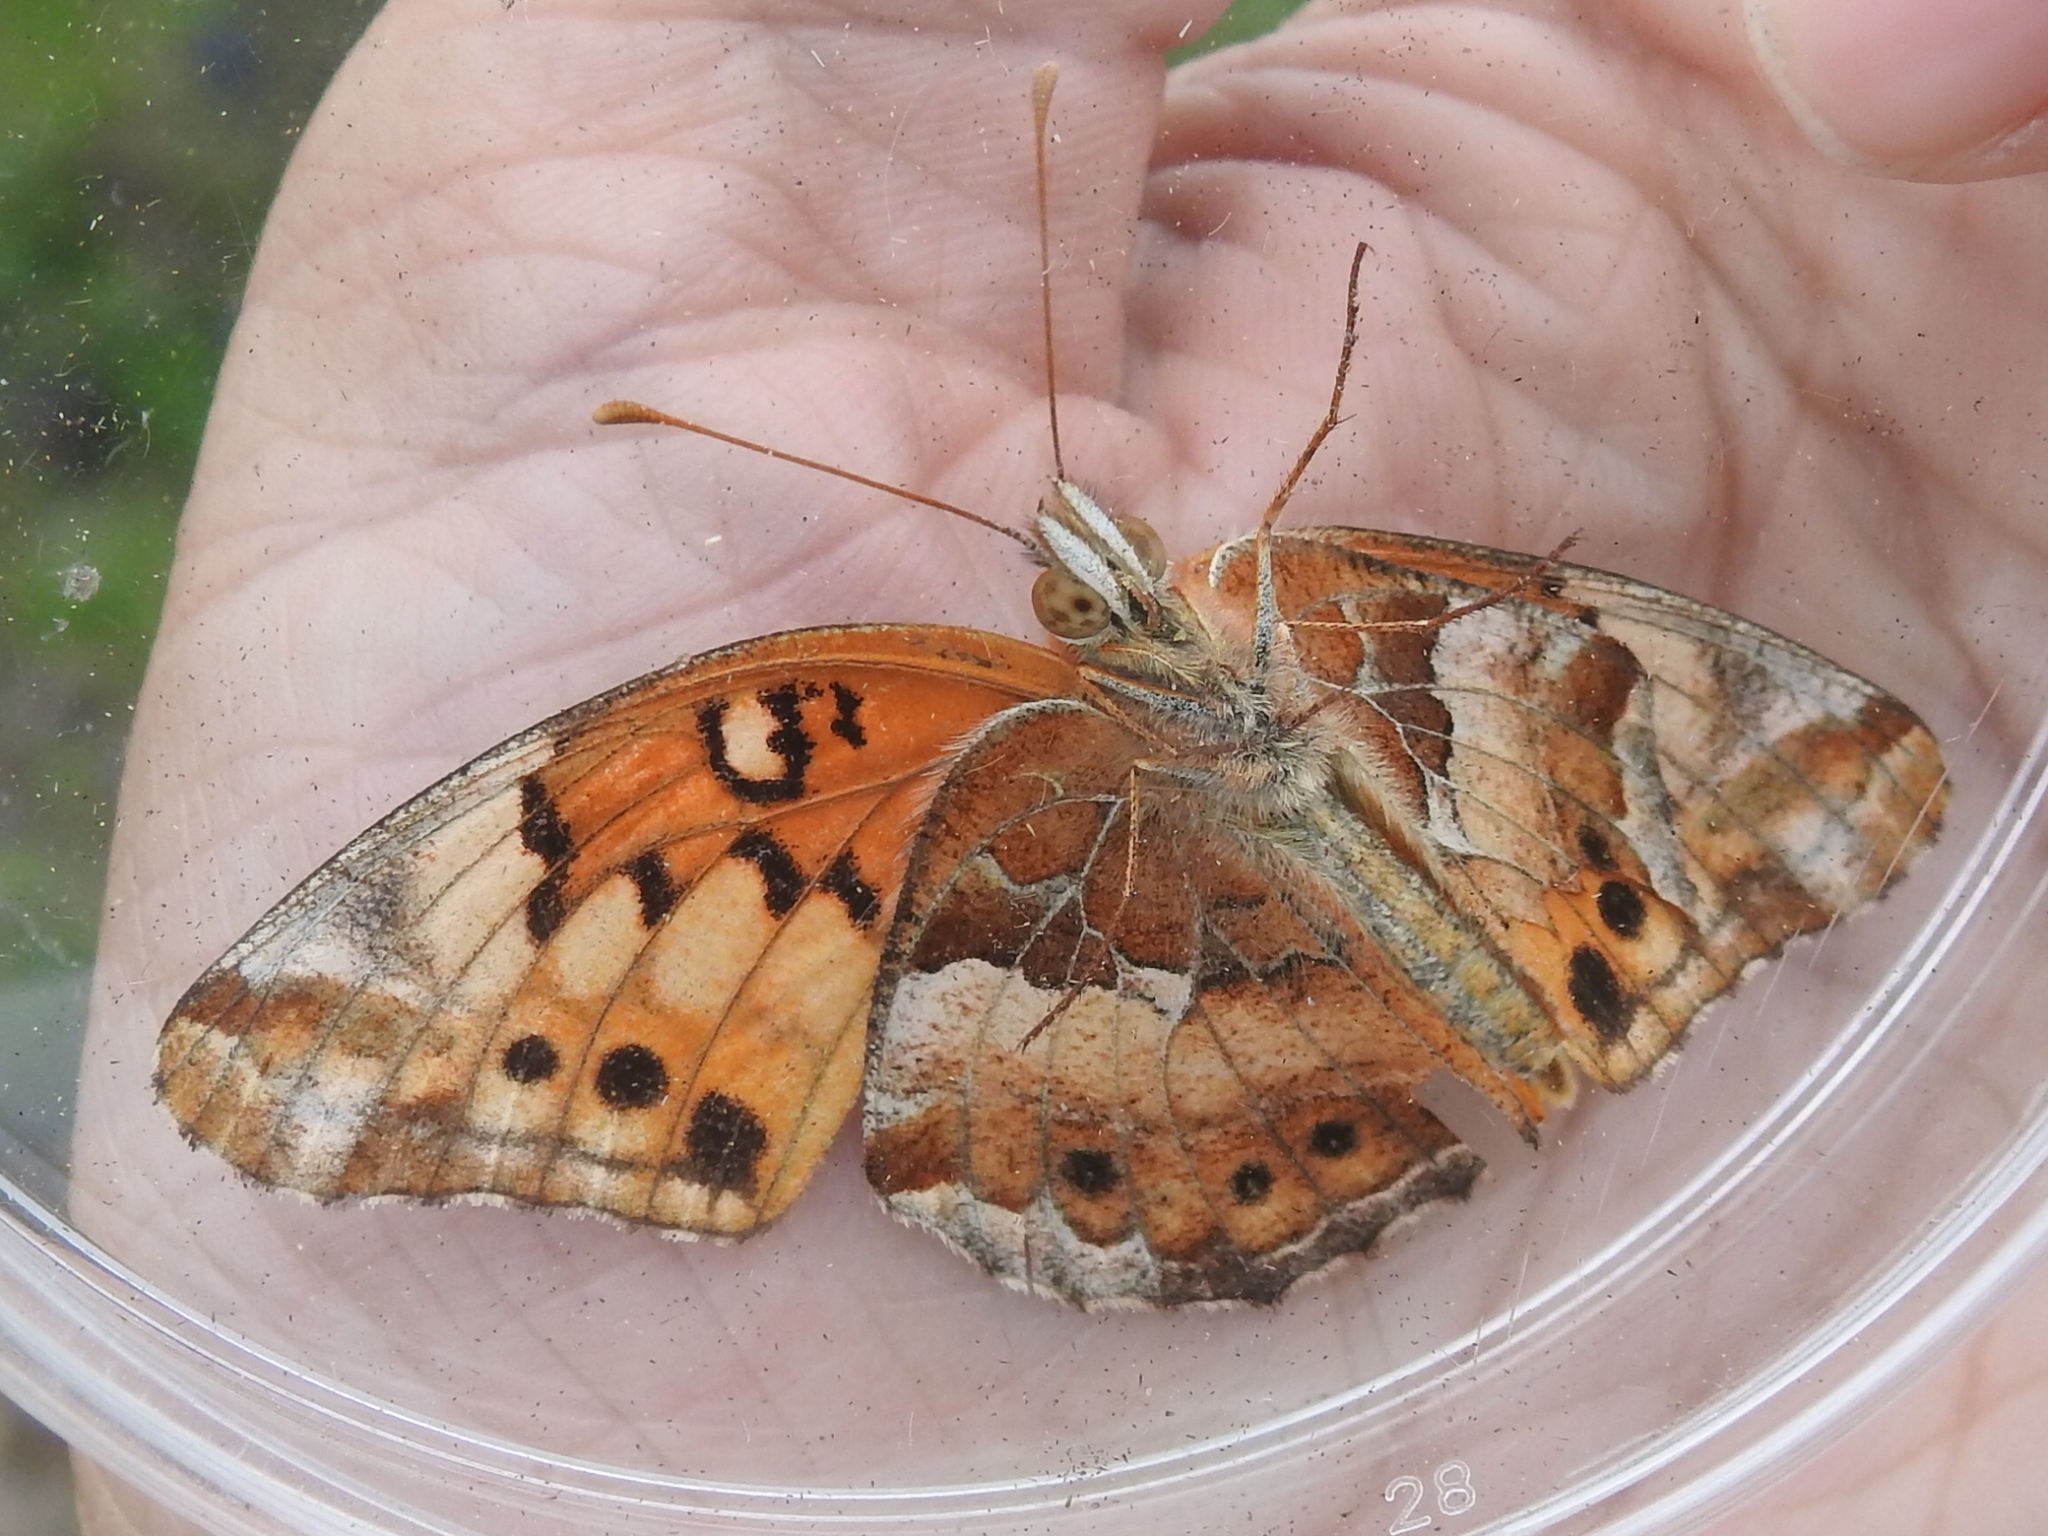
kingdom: Animalia
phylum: Arthropoda
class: Insecta
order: Lepidoptera
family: Nymphalidae
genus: Euptoieta
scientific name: Euptoieta claudia
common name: Variegated fritillary
